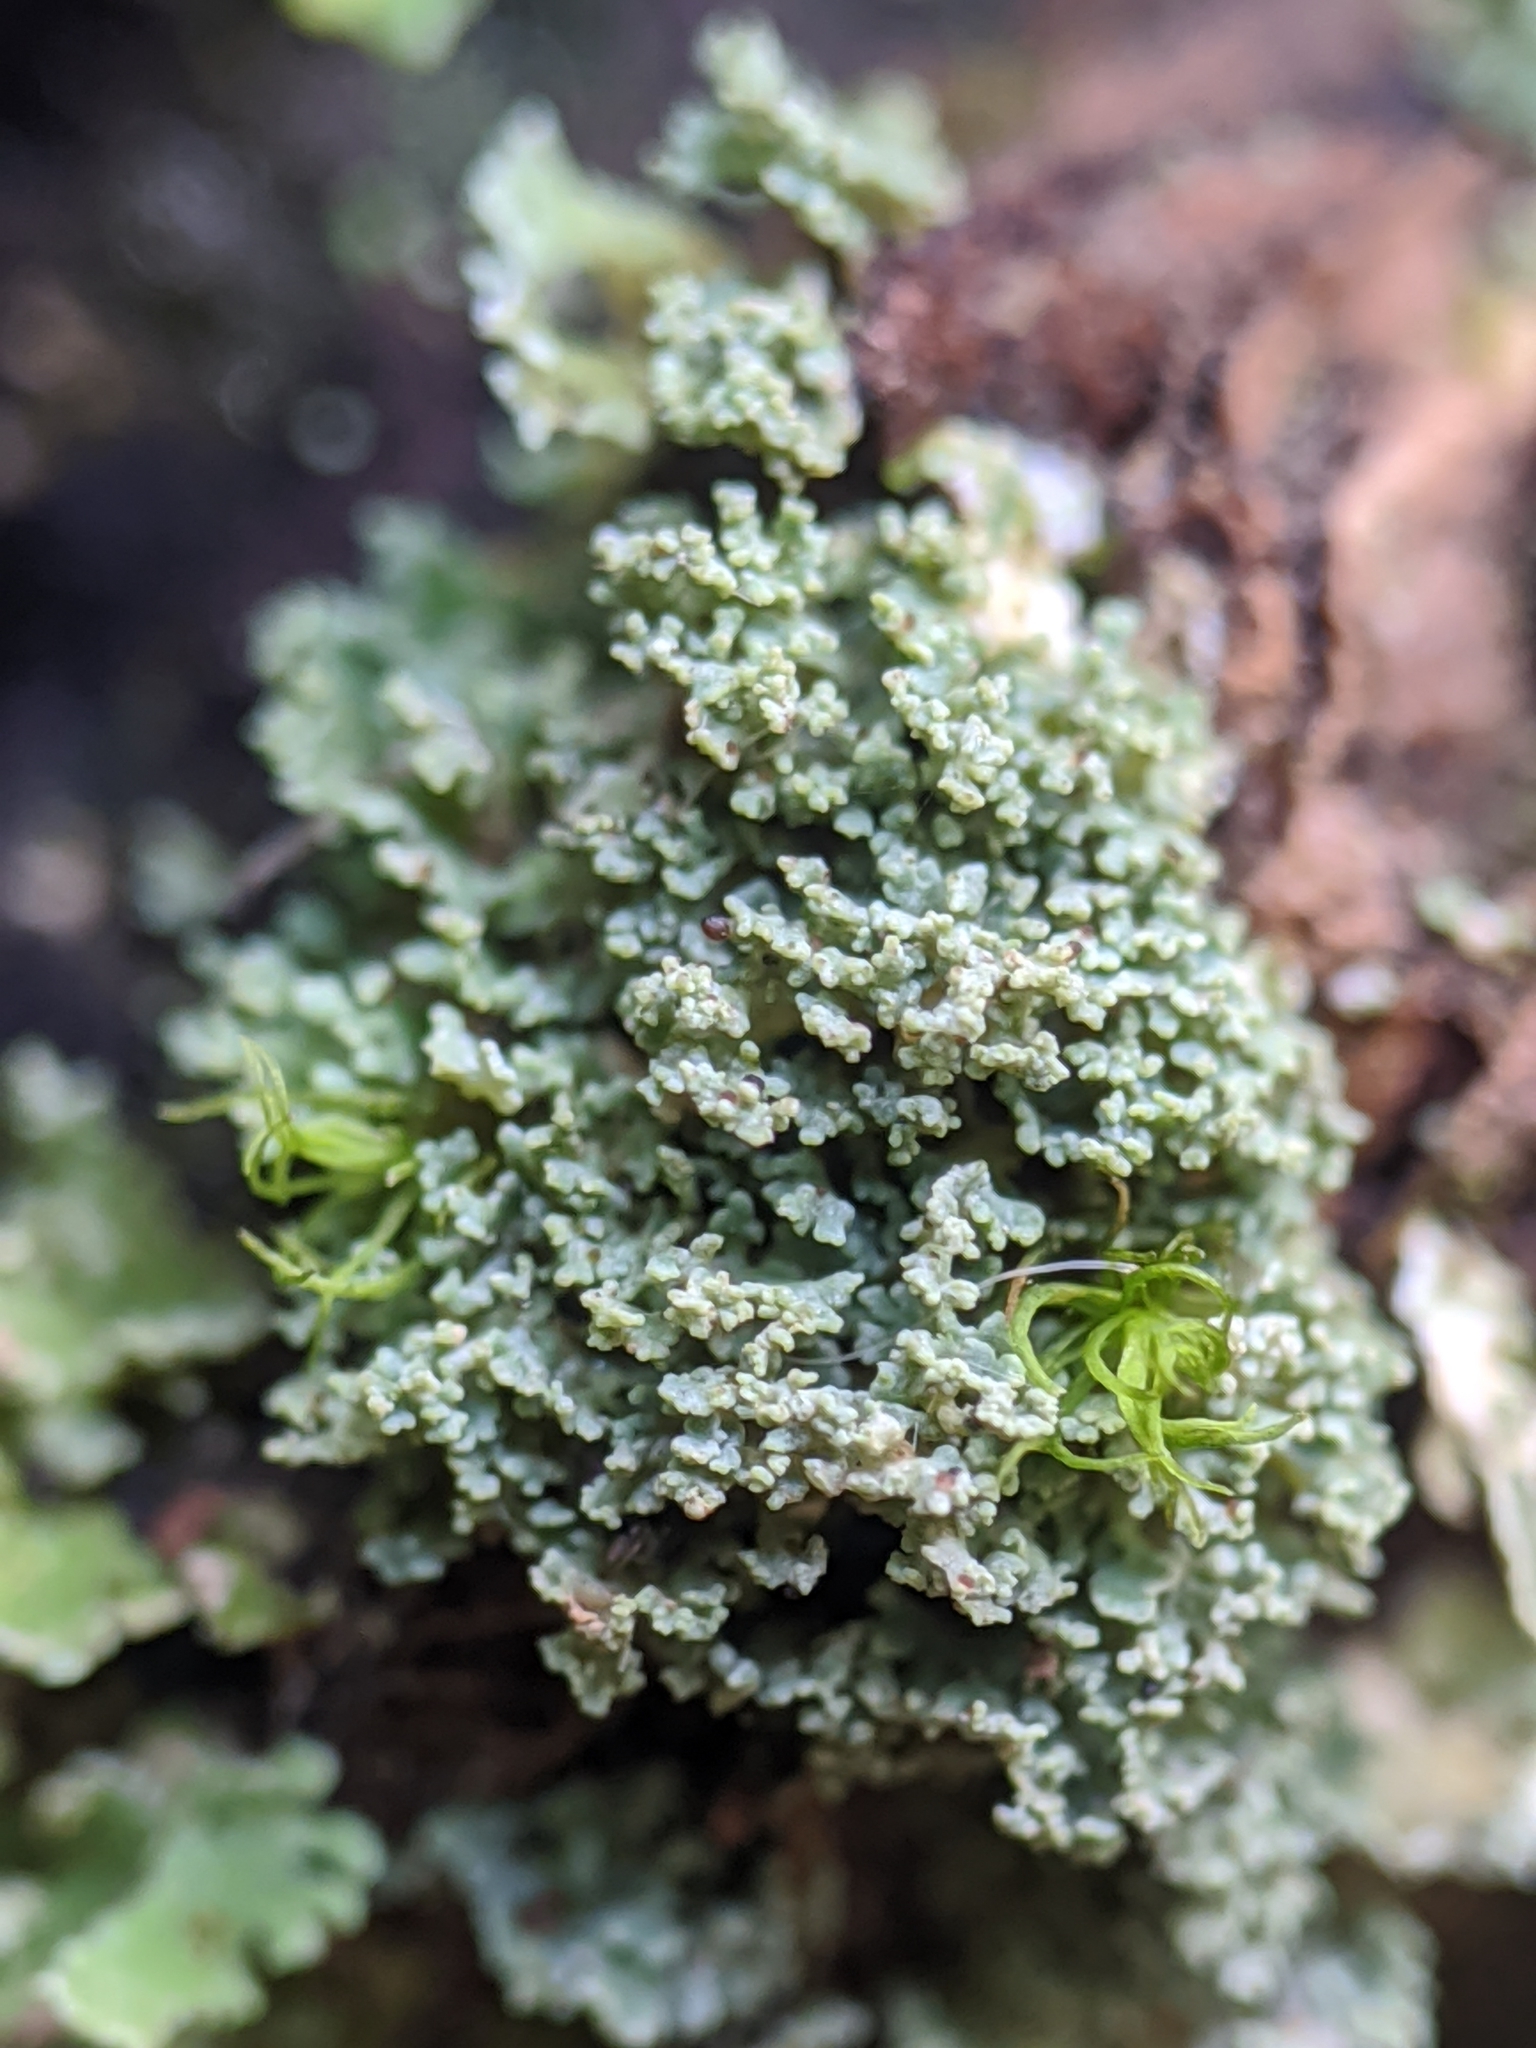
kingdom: Fungi
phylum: Ascomycota
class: Lecanoromycetes
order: Lecanorales
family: Cladoniaceae
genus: Cladonia
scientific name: Cladonia coniocraea
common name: Common powderhorn
